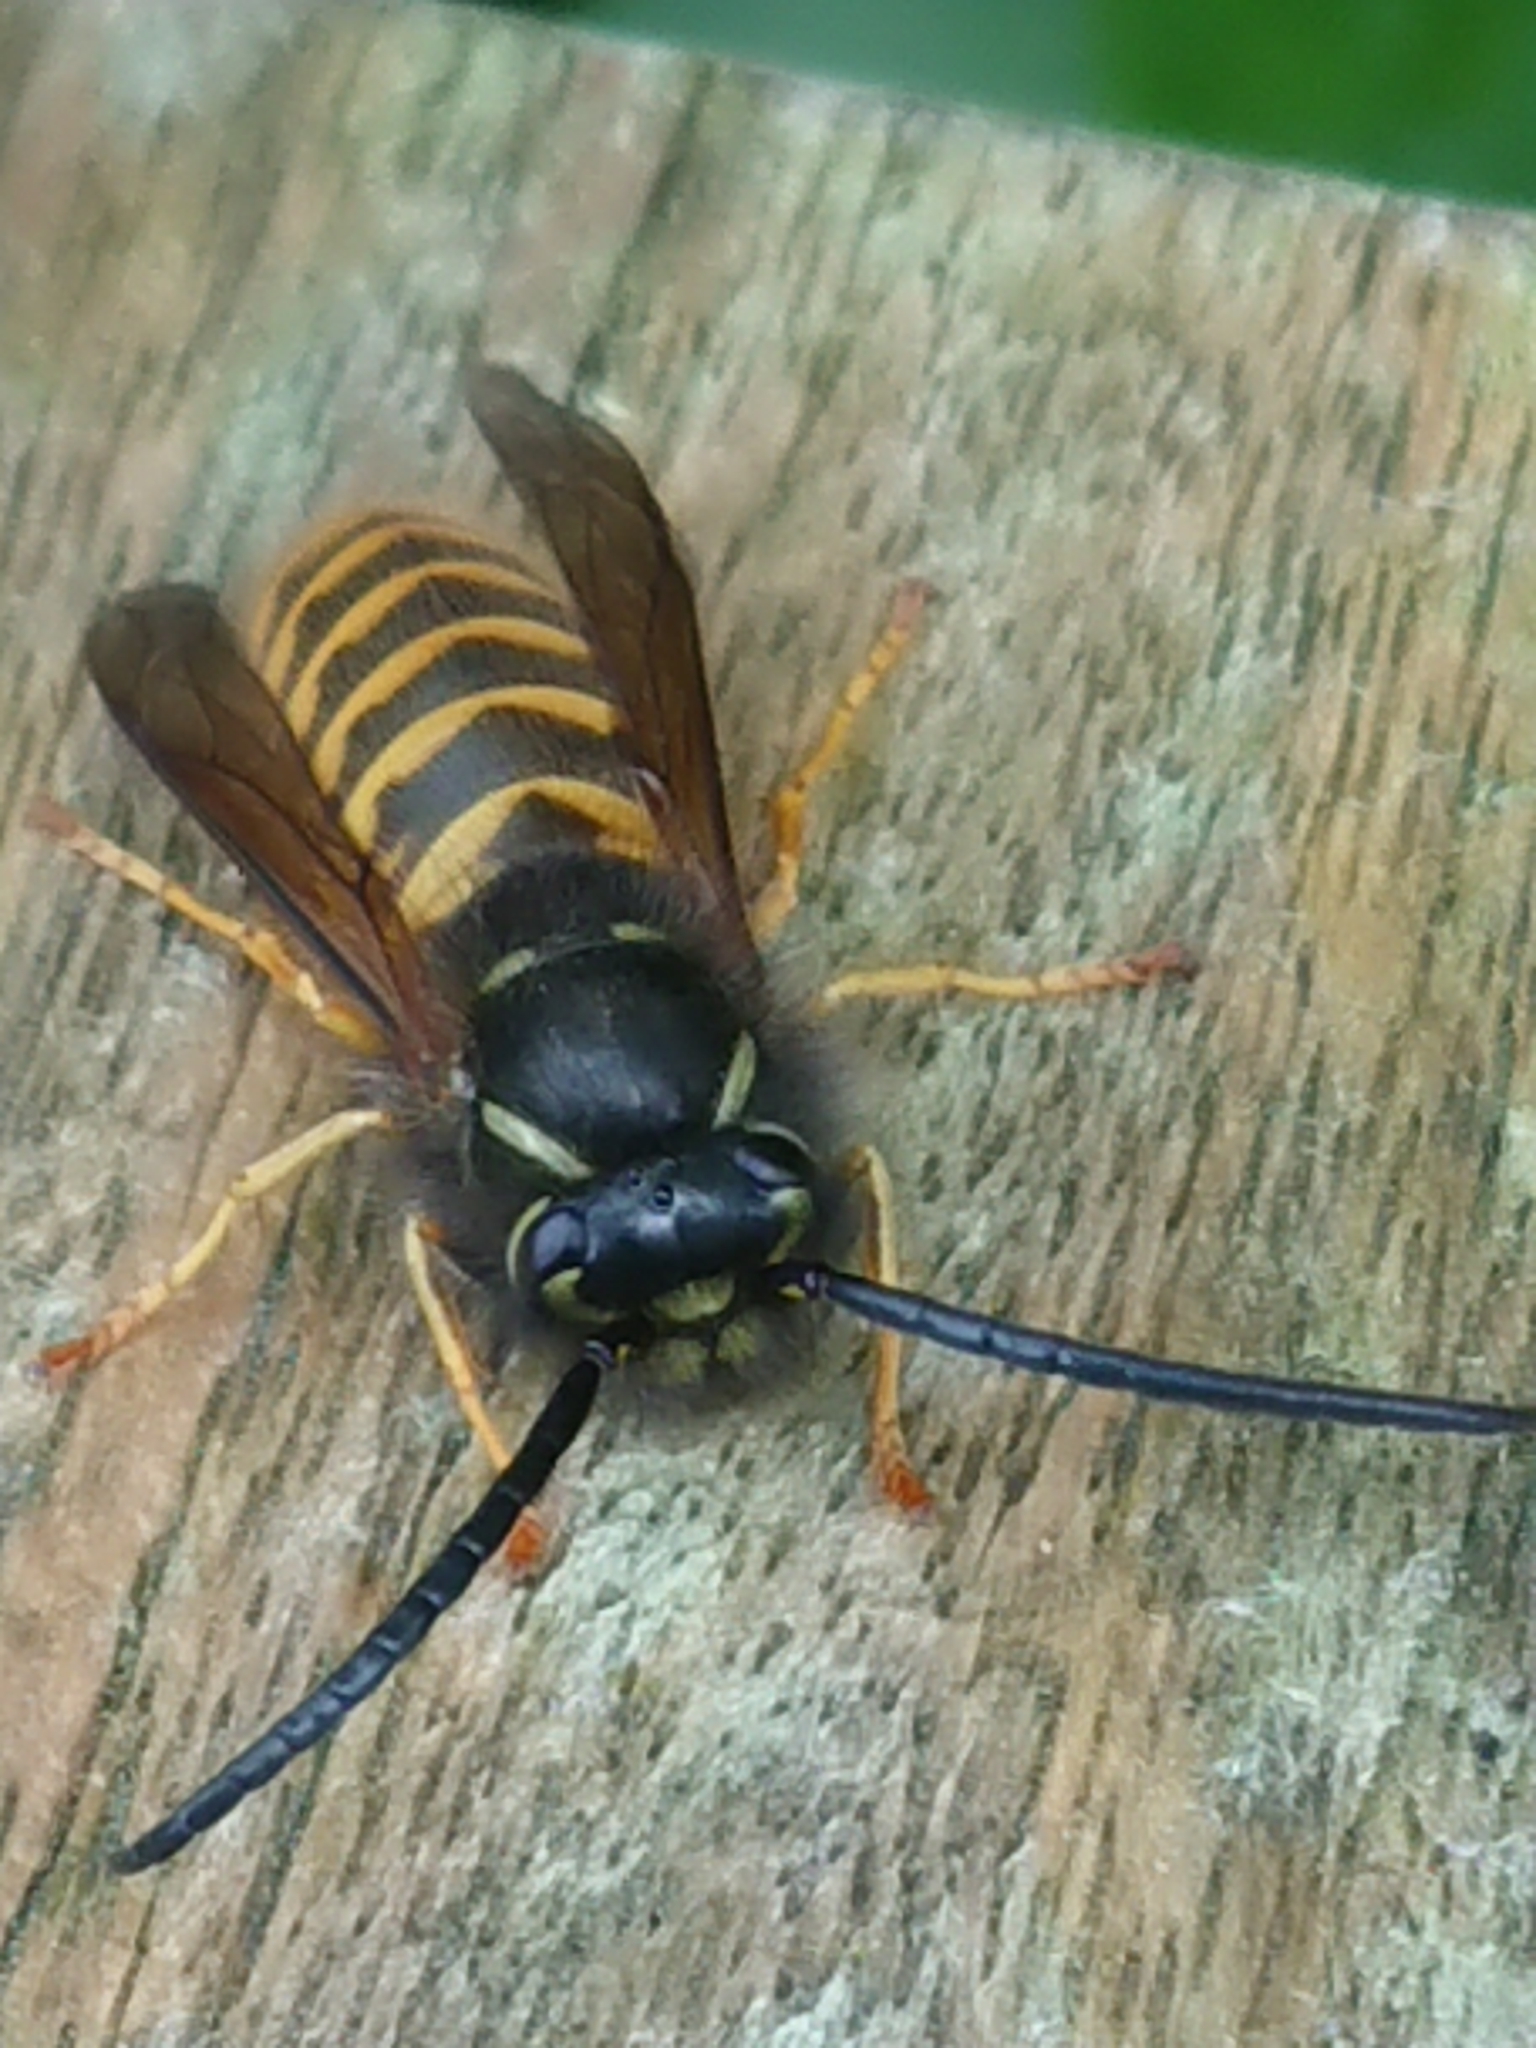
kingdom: Animalia
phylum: Arthropoda
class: Insecta
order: Hymenoptera
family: Vespidae
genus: Vespula
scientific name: Vespula vulgaris
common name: Common wasp
